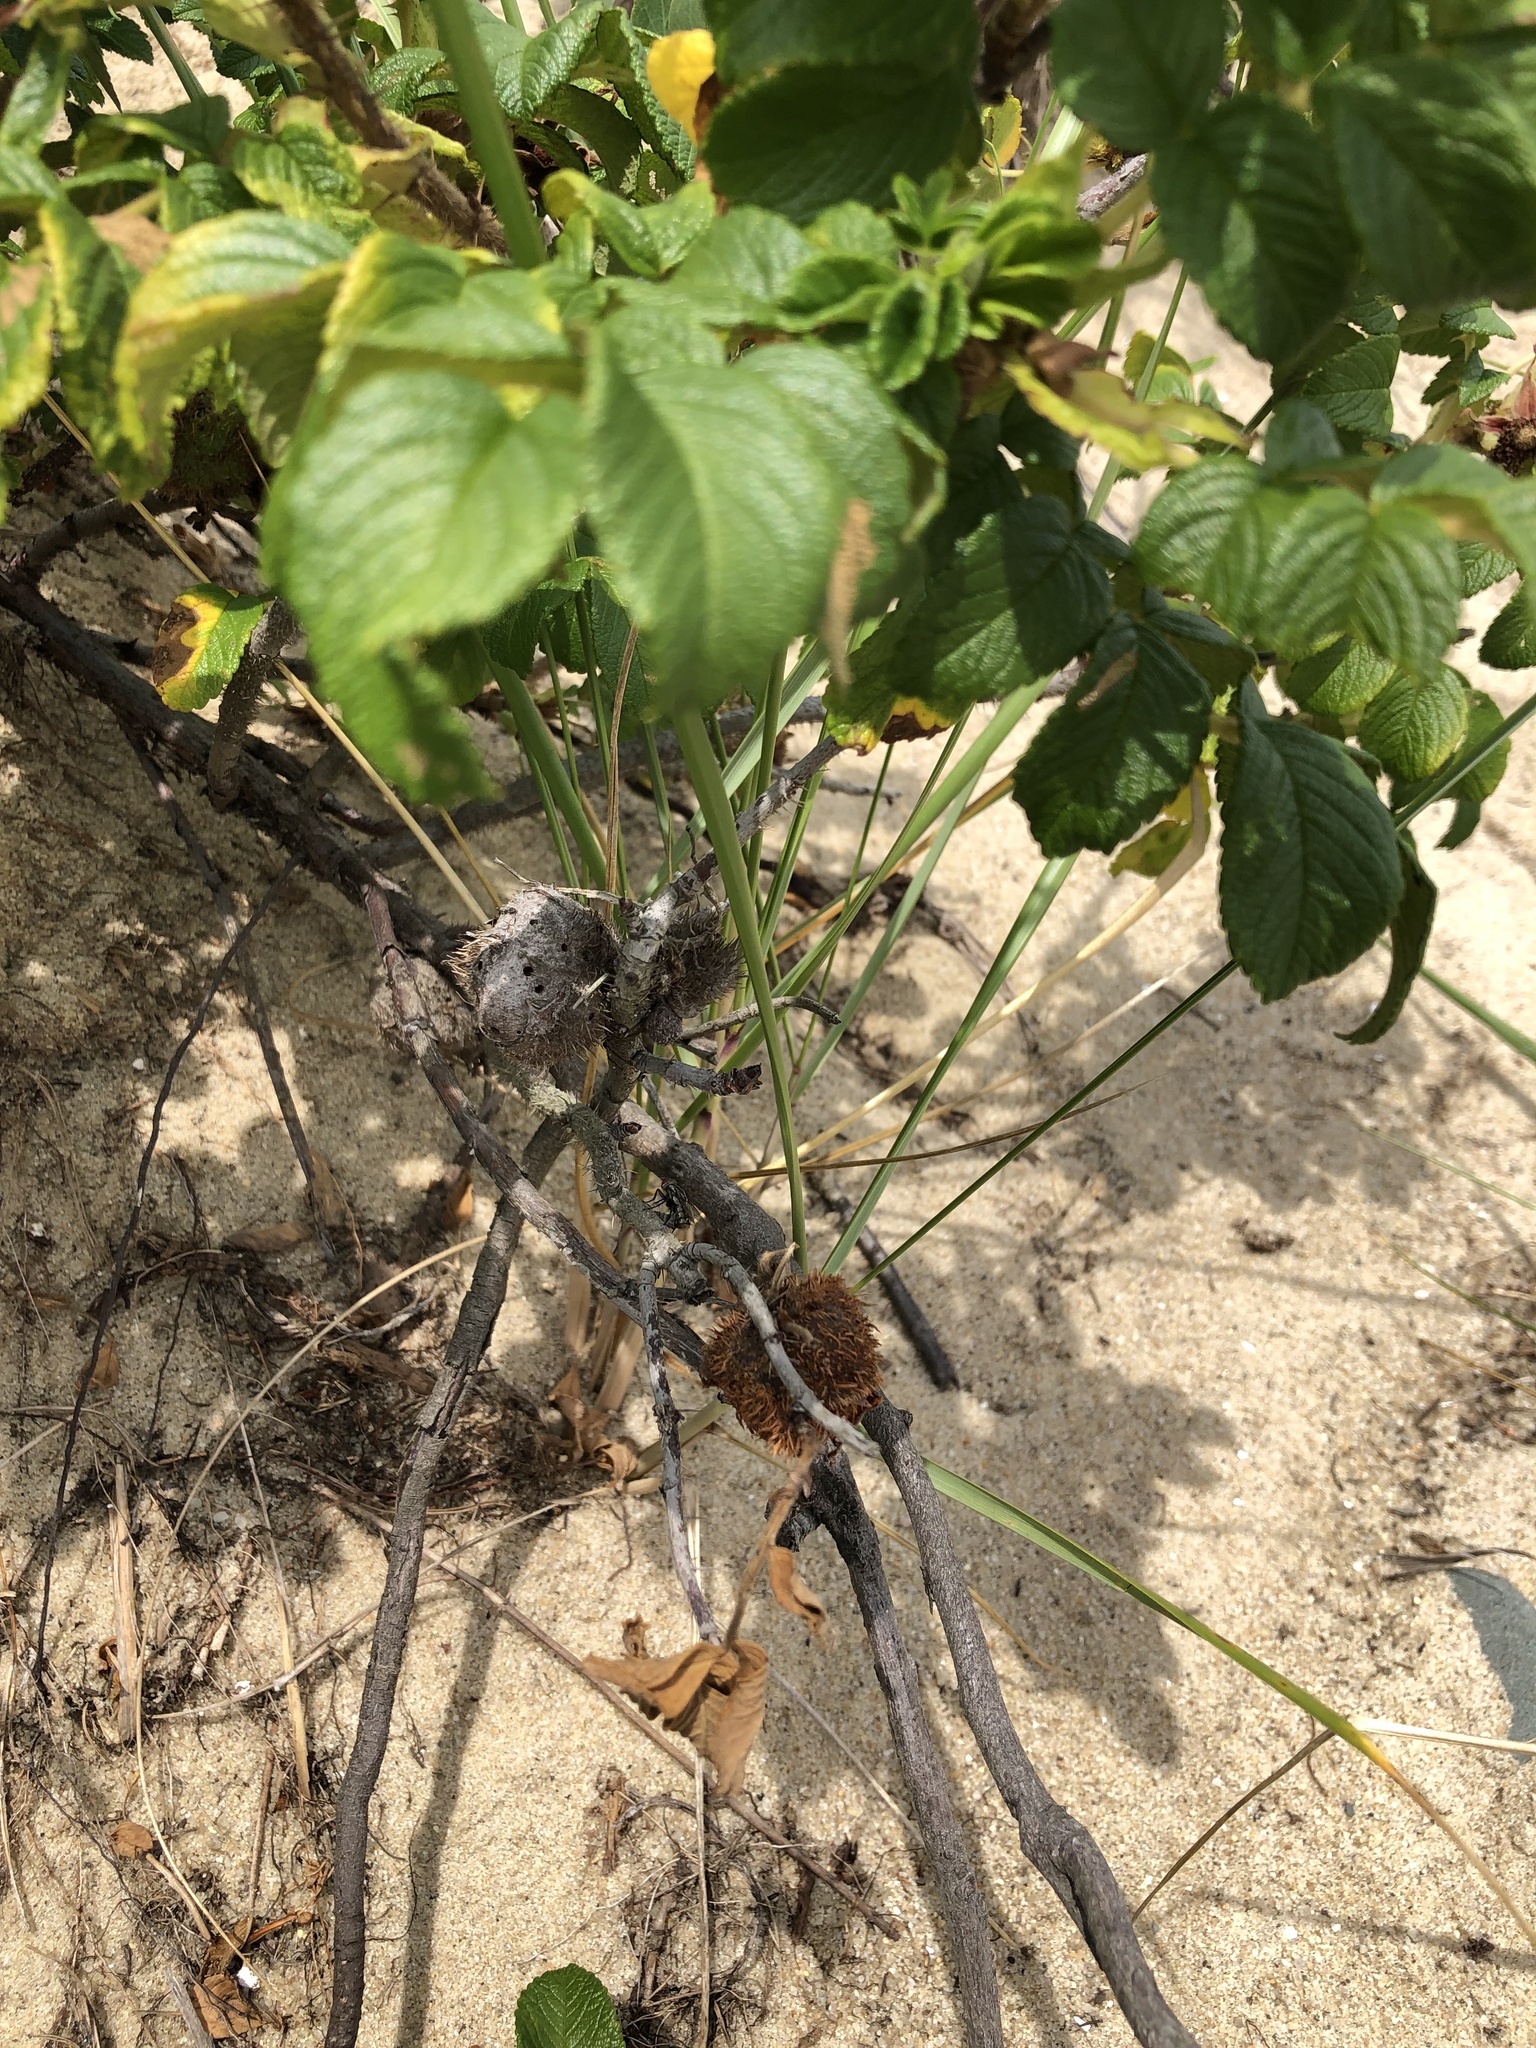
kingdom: Animalia
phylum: Arthropoda
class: Insecta
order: Hymenoptera
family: Cynipidae
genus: Diplolepis
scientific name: Diplolepis spinosa
